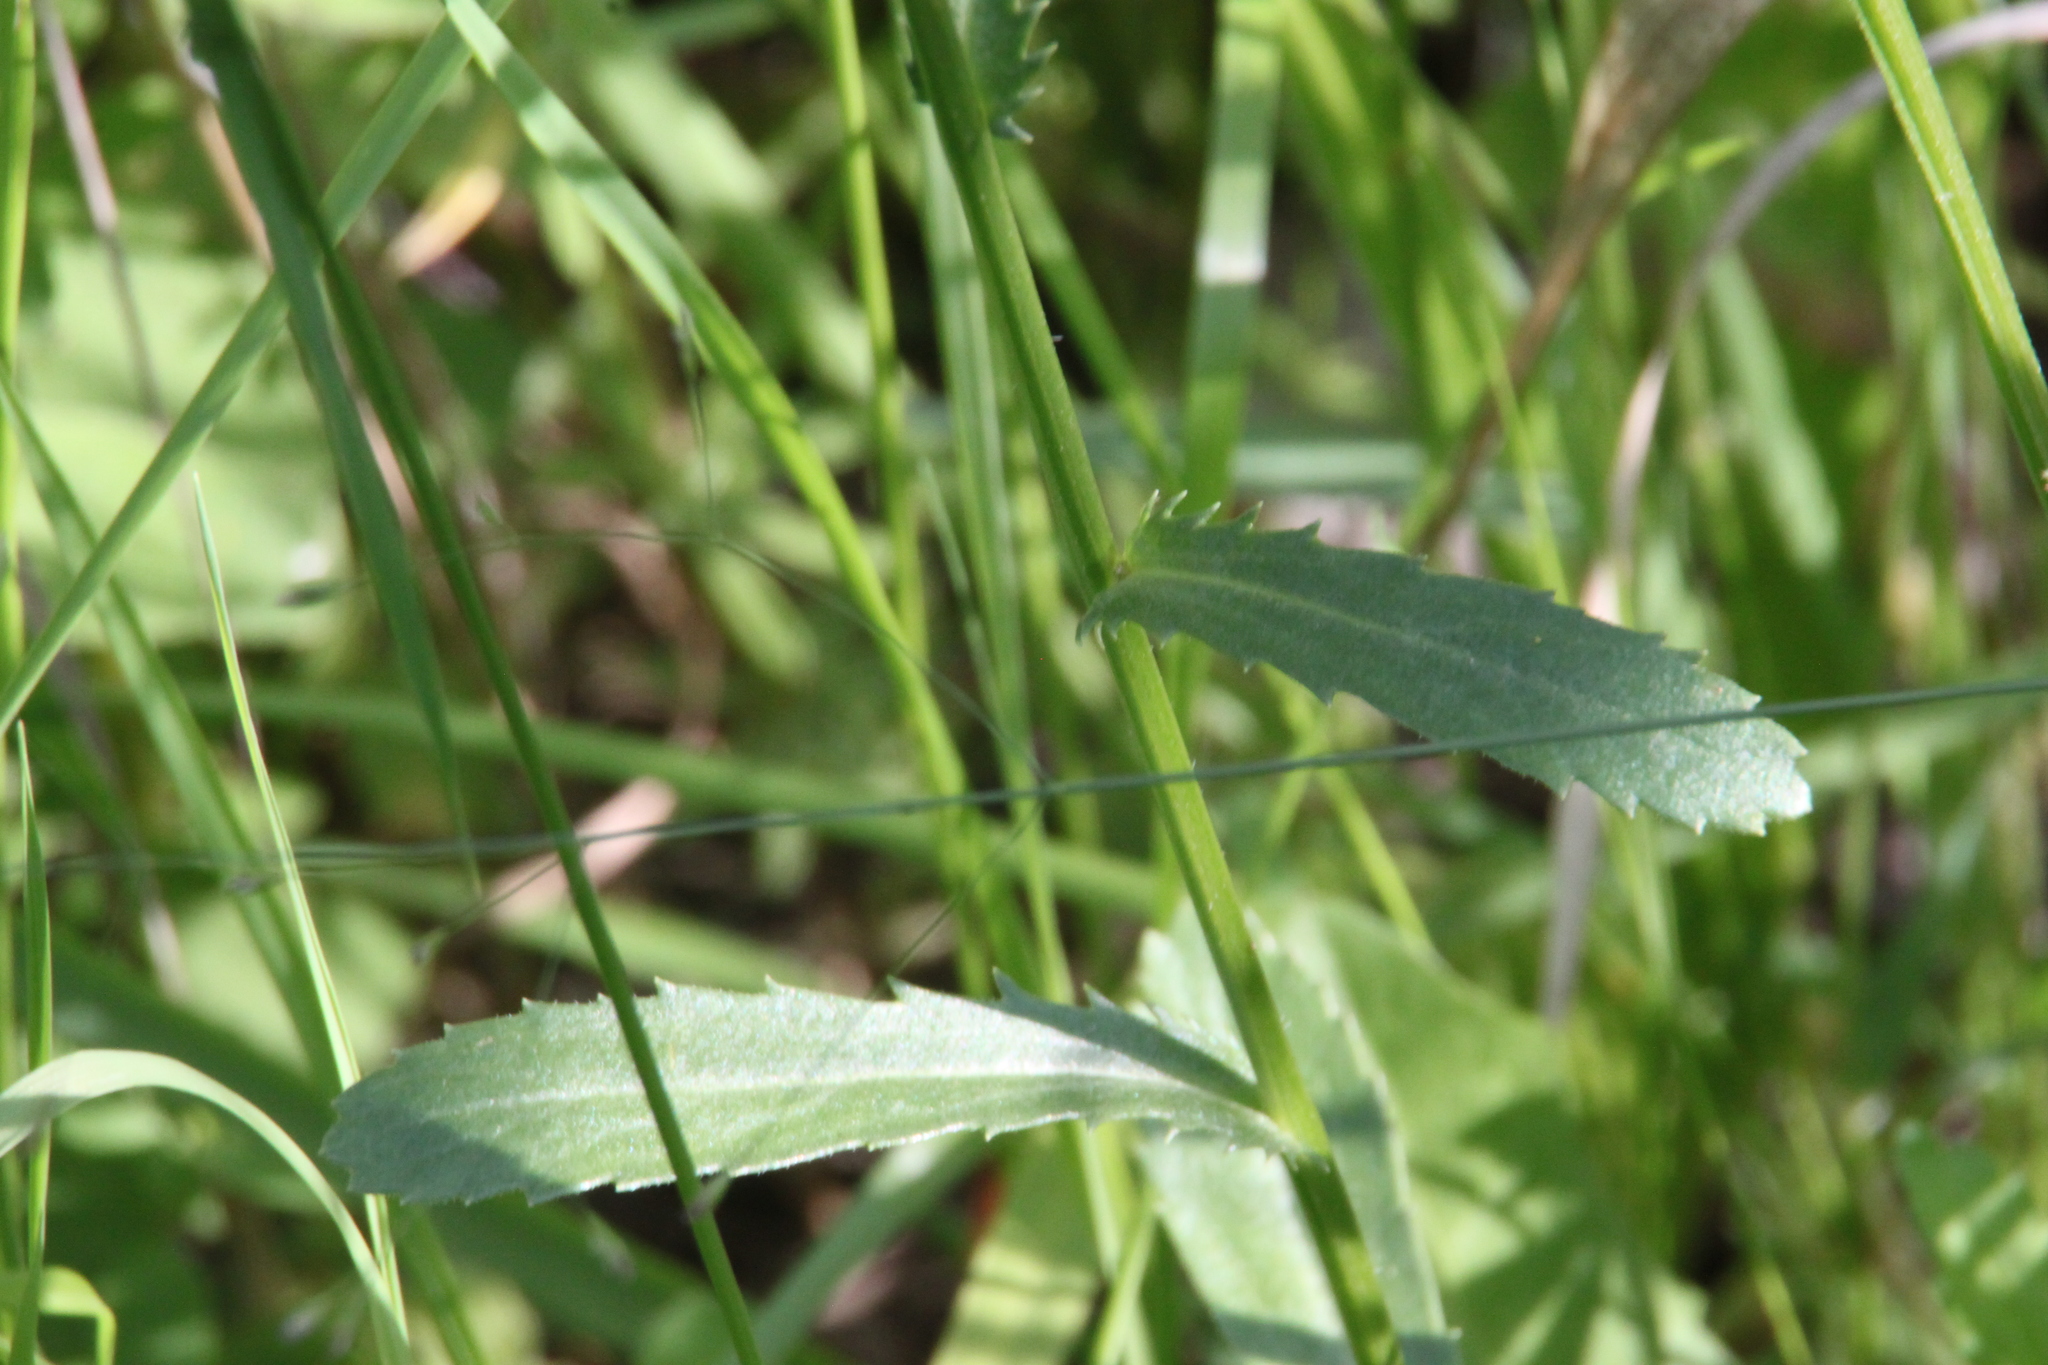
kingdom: Plantae
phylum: Tracheophyta
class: Magnoliopsida
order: Asterales
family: Asteraceae
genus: Leucanthemum
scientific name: Leucanthemum vulgare
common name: Oxeye daisy
